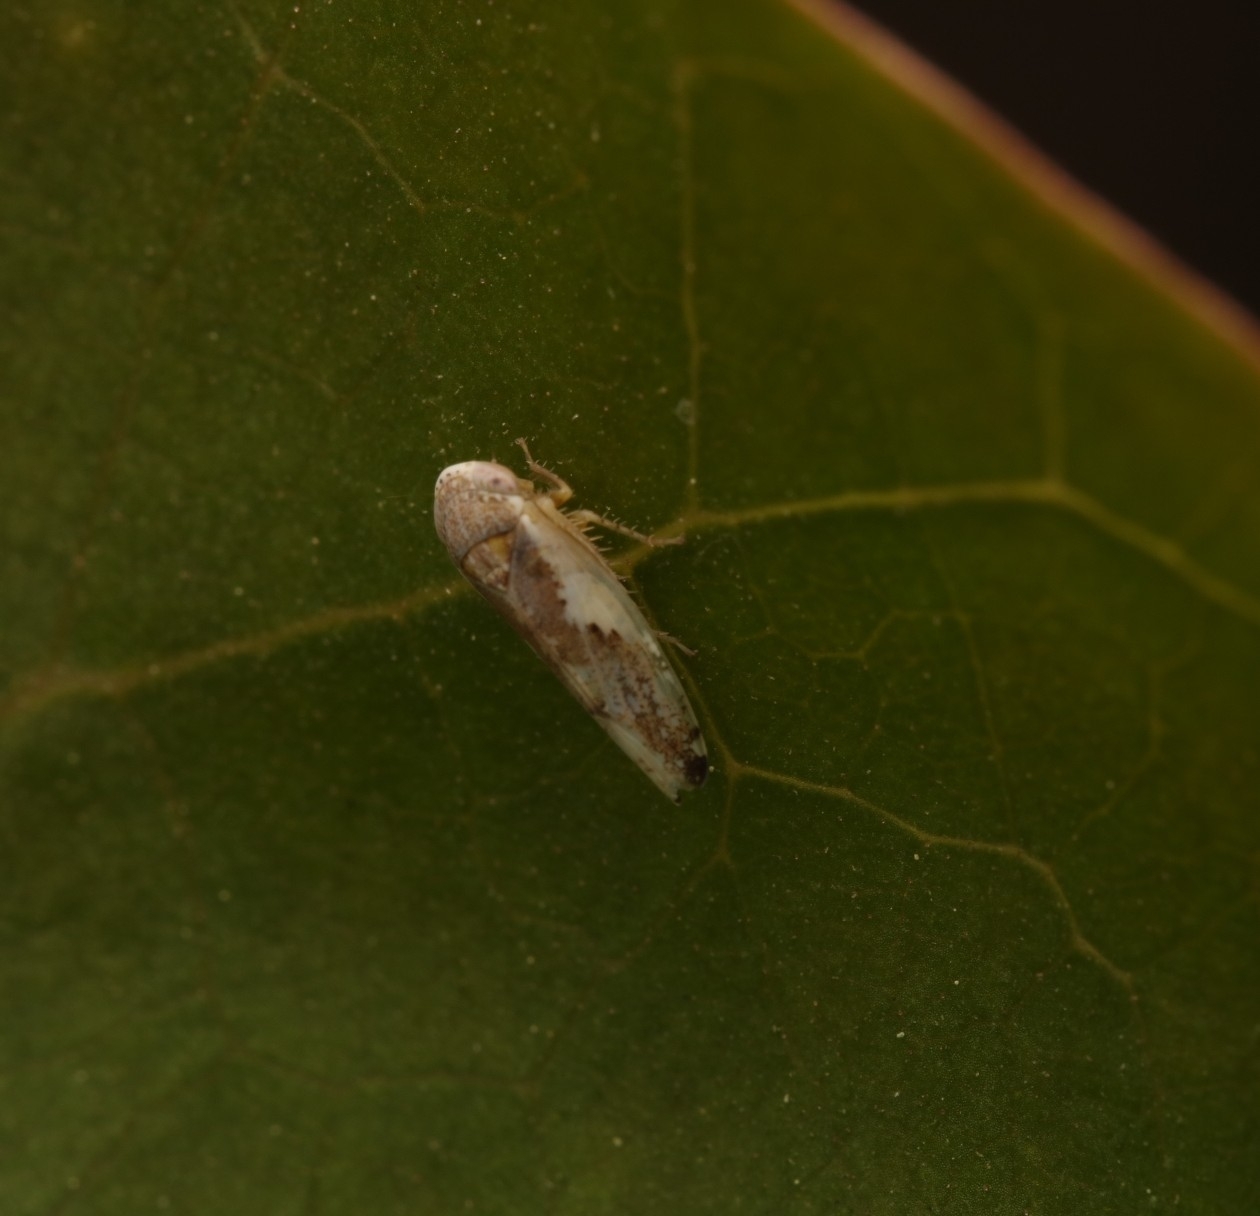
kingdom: Animalia
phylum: Arthropoda
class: Insecta
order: Hemiptera
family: Cicadellidae
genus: Norvellina
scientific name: Norvellina snowi
